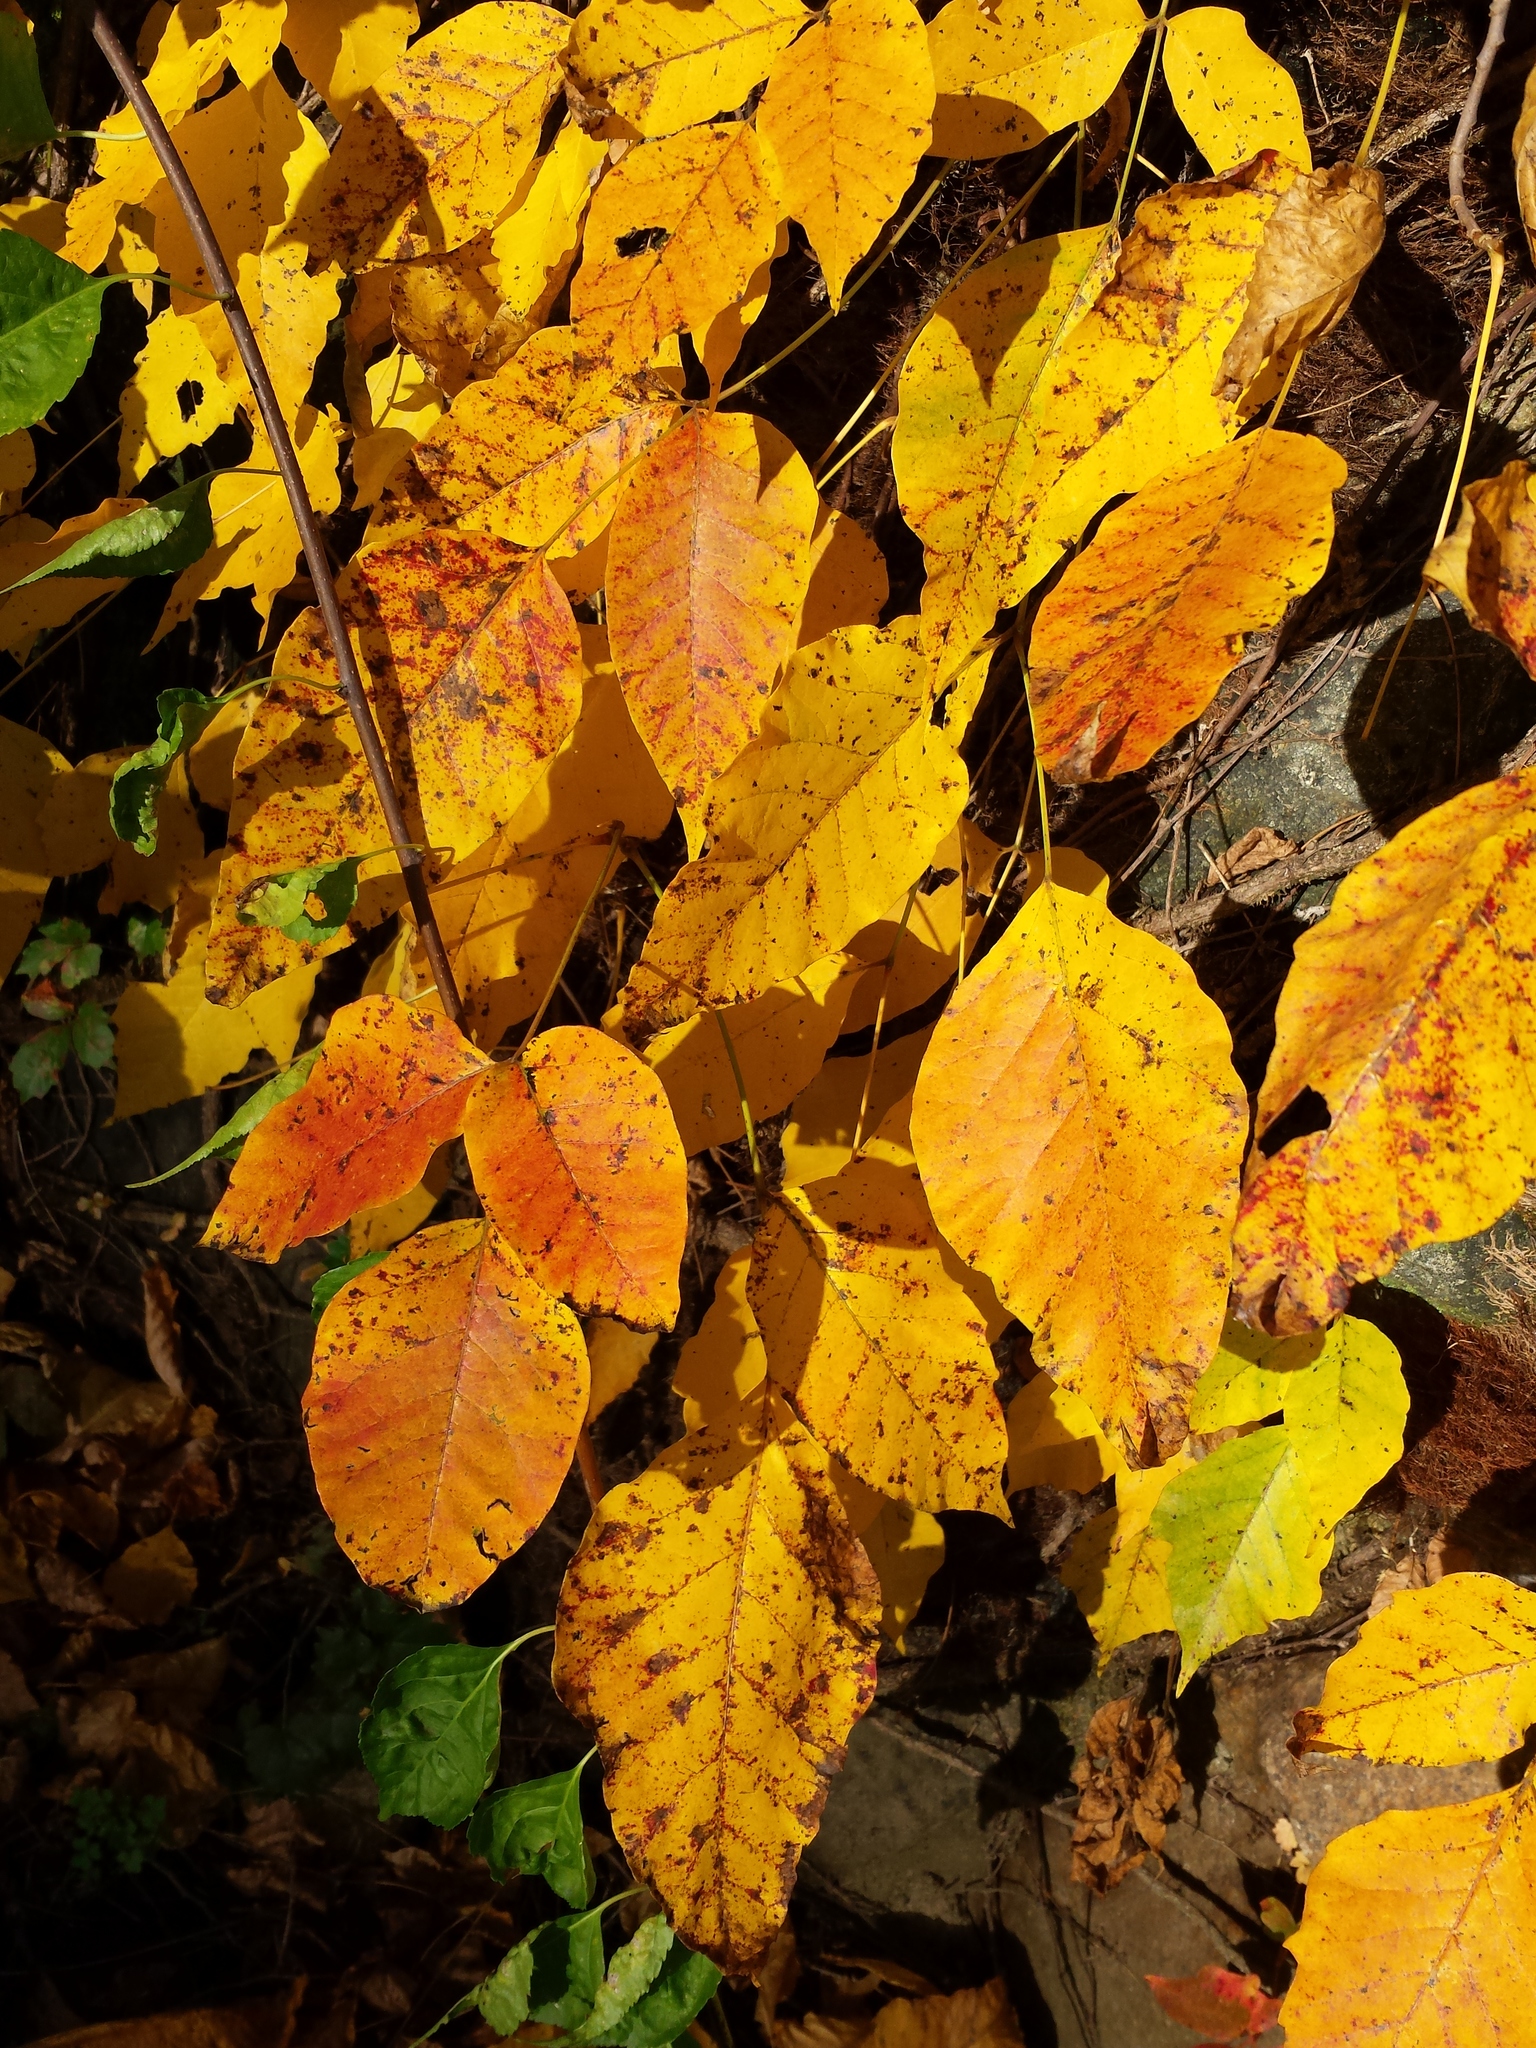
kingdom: Plantae
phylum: Tracheophyta
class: Magnoliopsida
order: Sapindales
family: Anacardiaceae
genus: Toxicodendron
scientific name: Toxicodendron radicans
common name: Poison ivy
